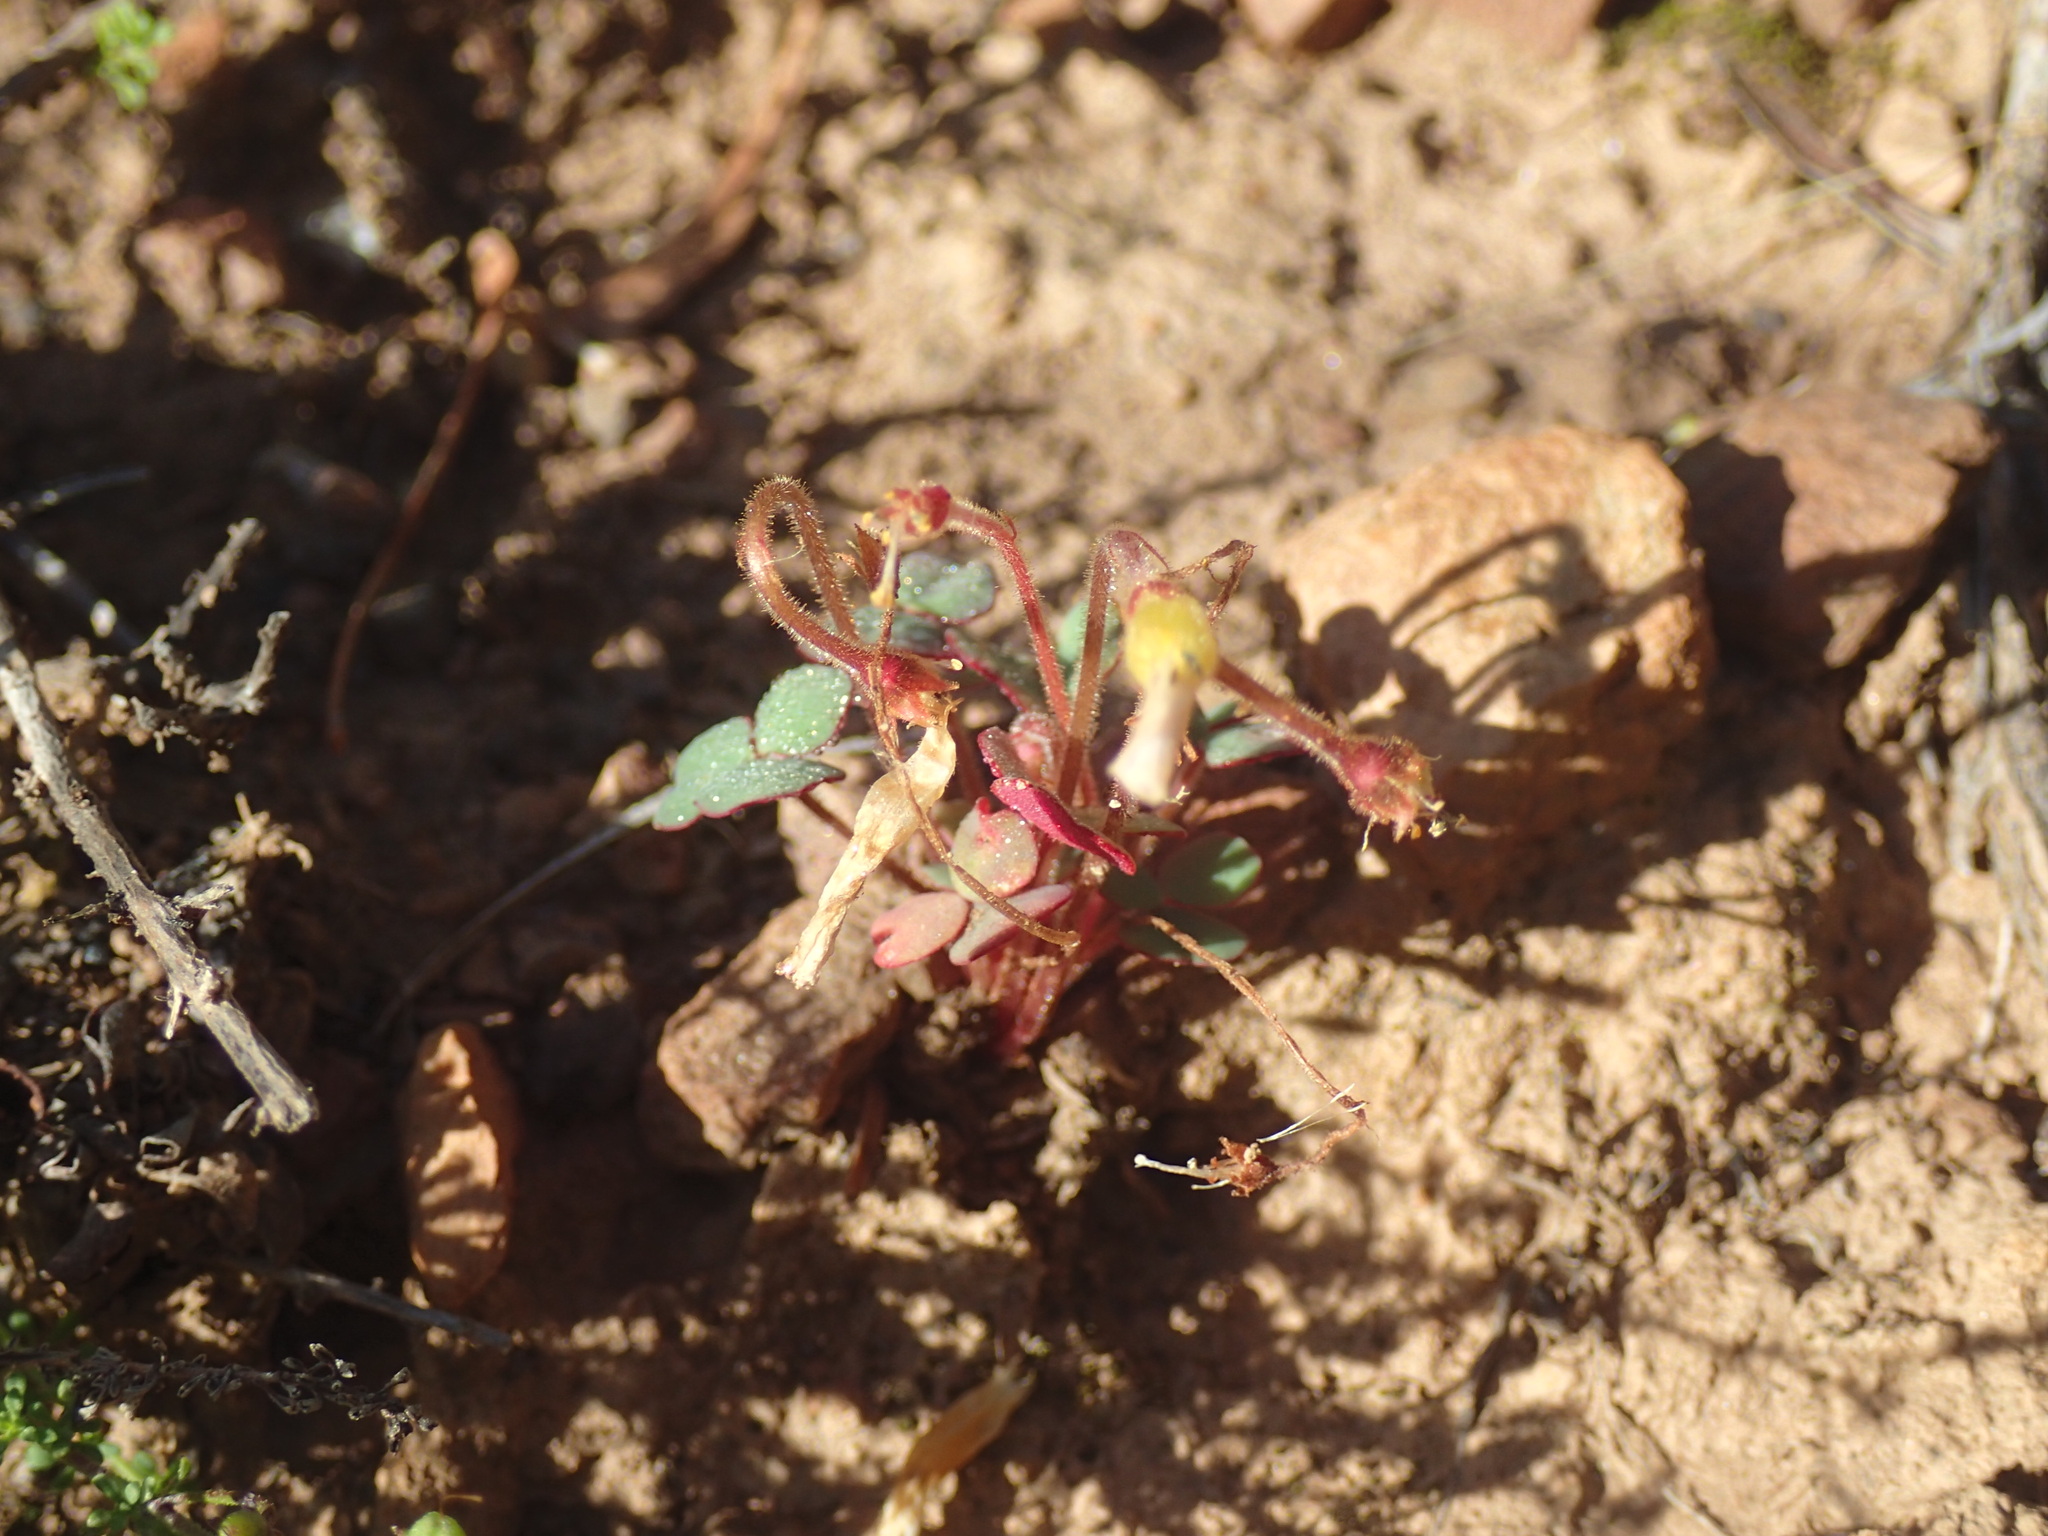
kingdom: Plantae
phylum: Tracheophyta
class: Magnoliopsida
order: Oxalidales
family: Oxalidaceae
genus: Oxalis
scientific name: Oxalis punctata
